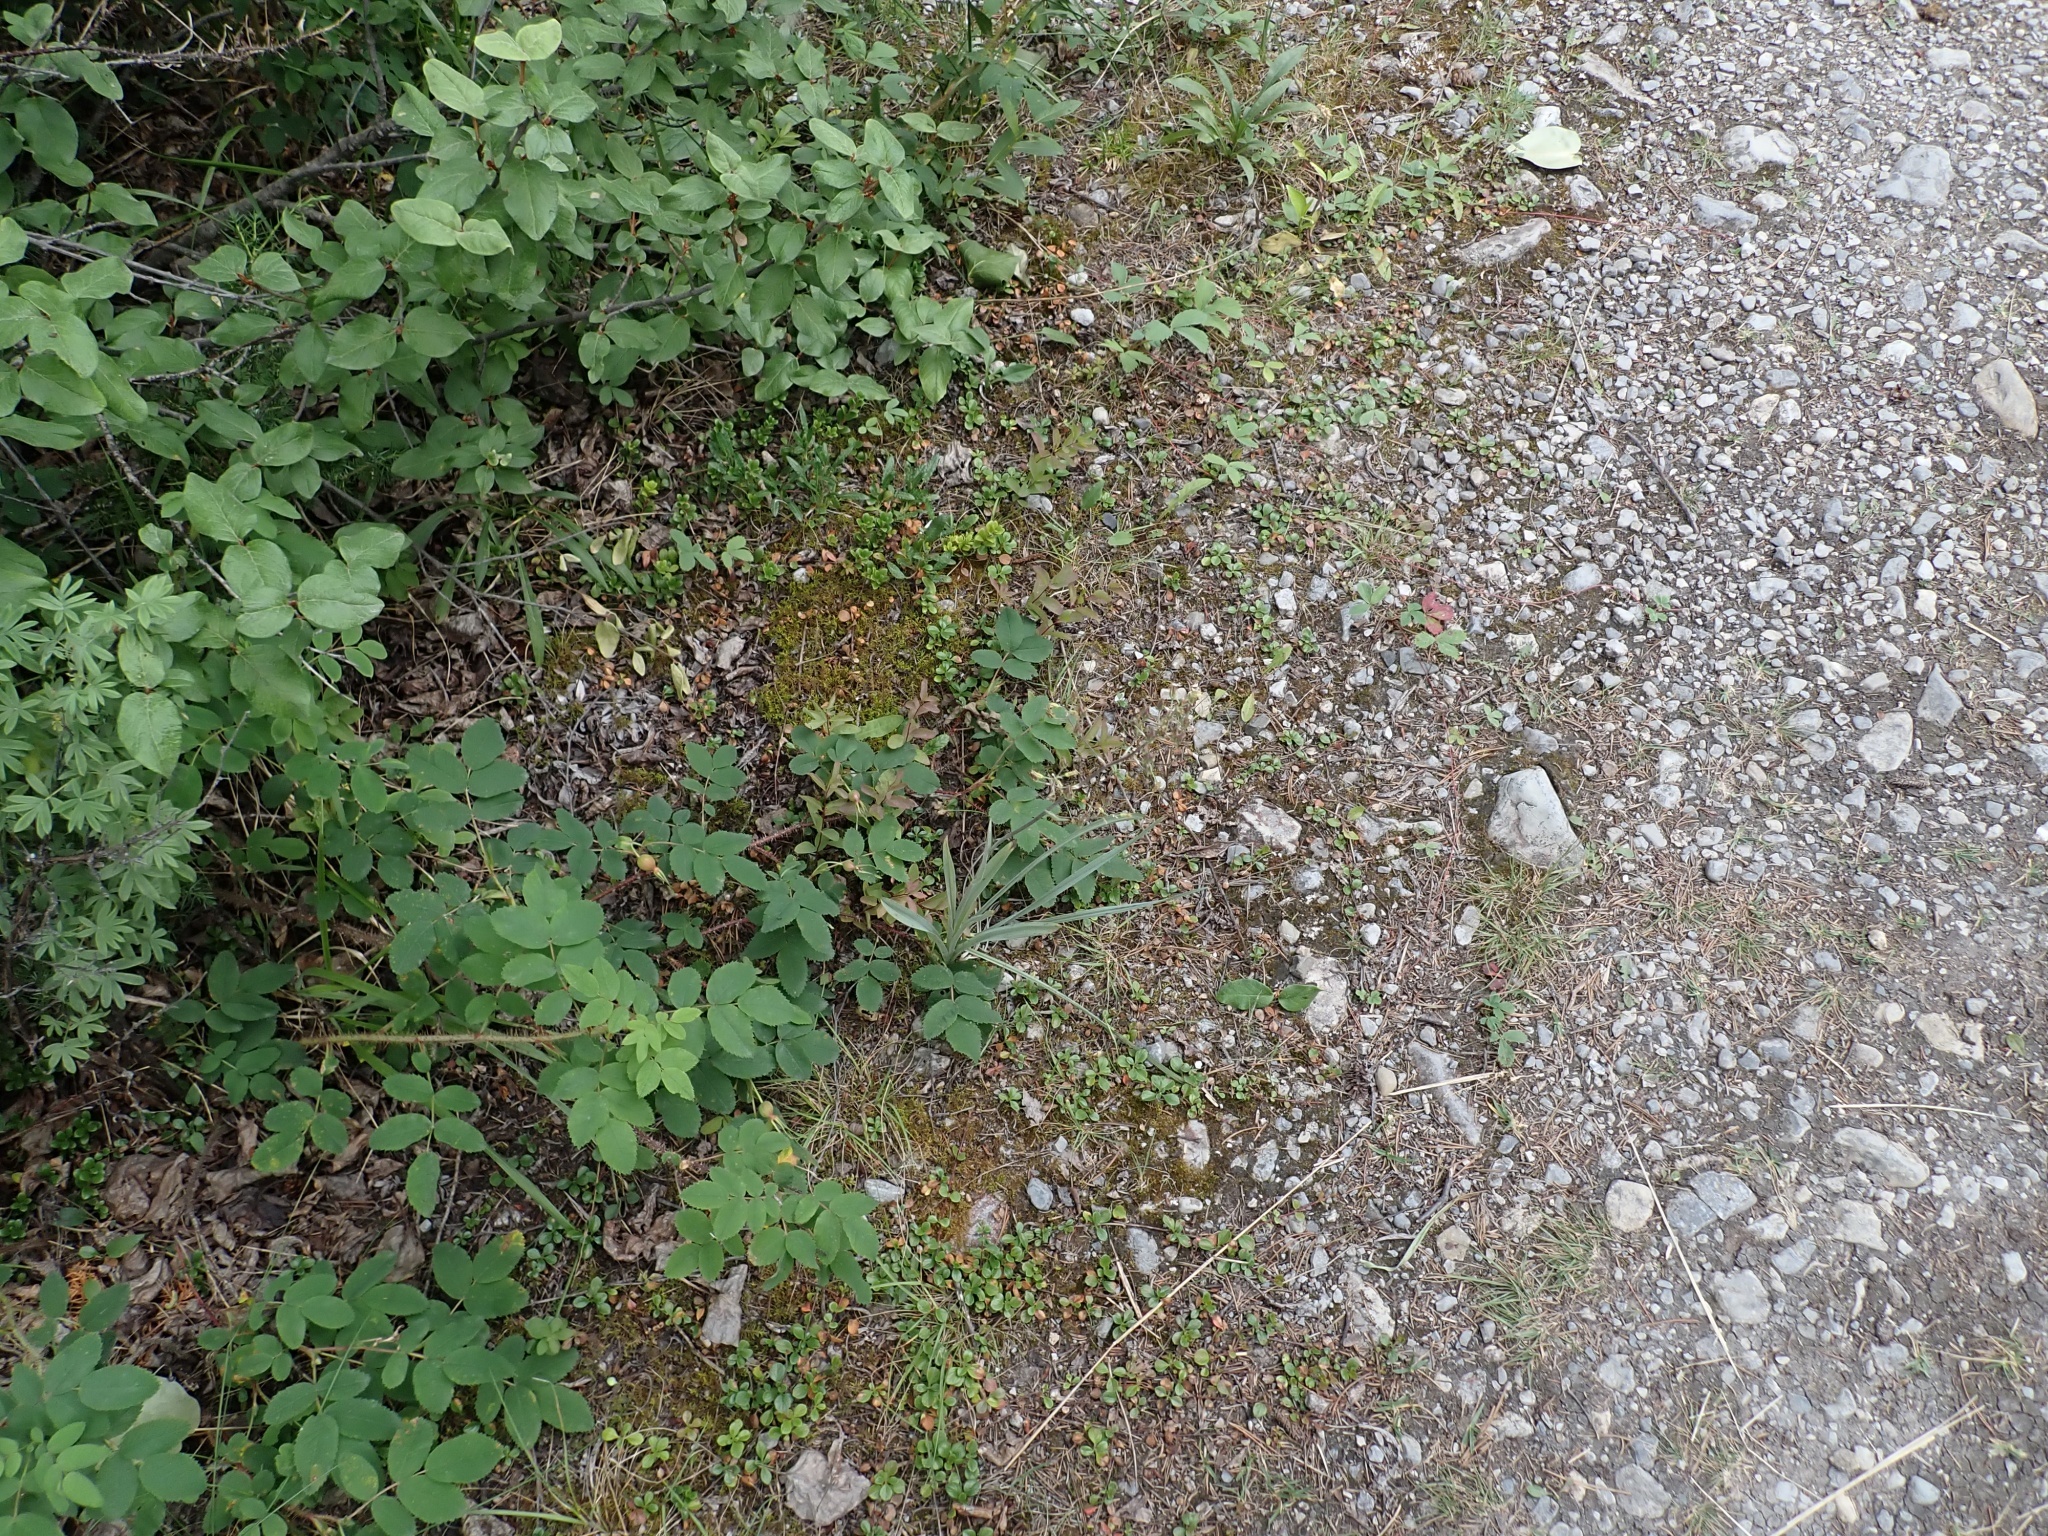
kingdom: Plantae
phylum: Tracheophyta
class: Liliopsida
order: Liliales
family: Melanthiaceae
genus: Anticlea
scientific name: Anticlea elegans
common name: Mountain death camas
